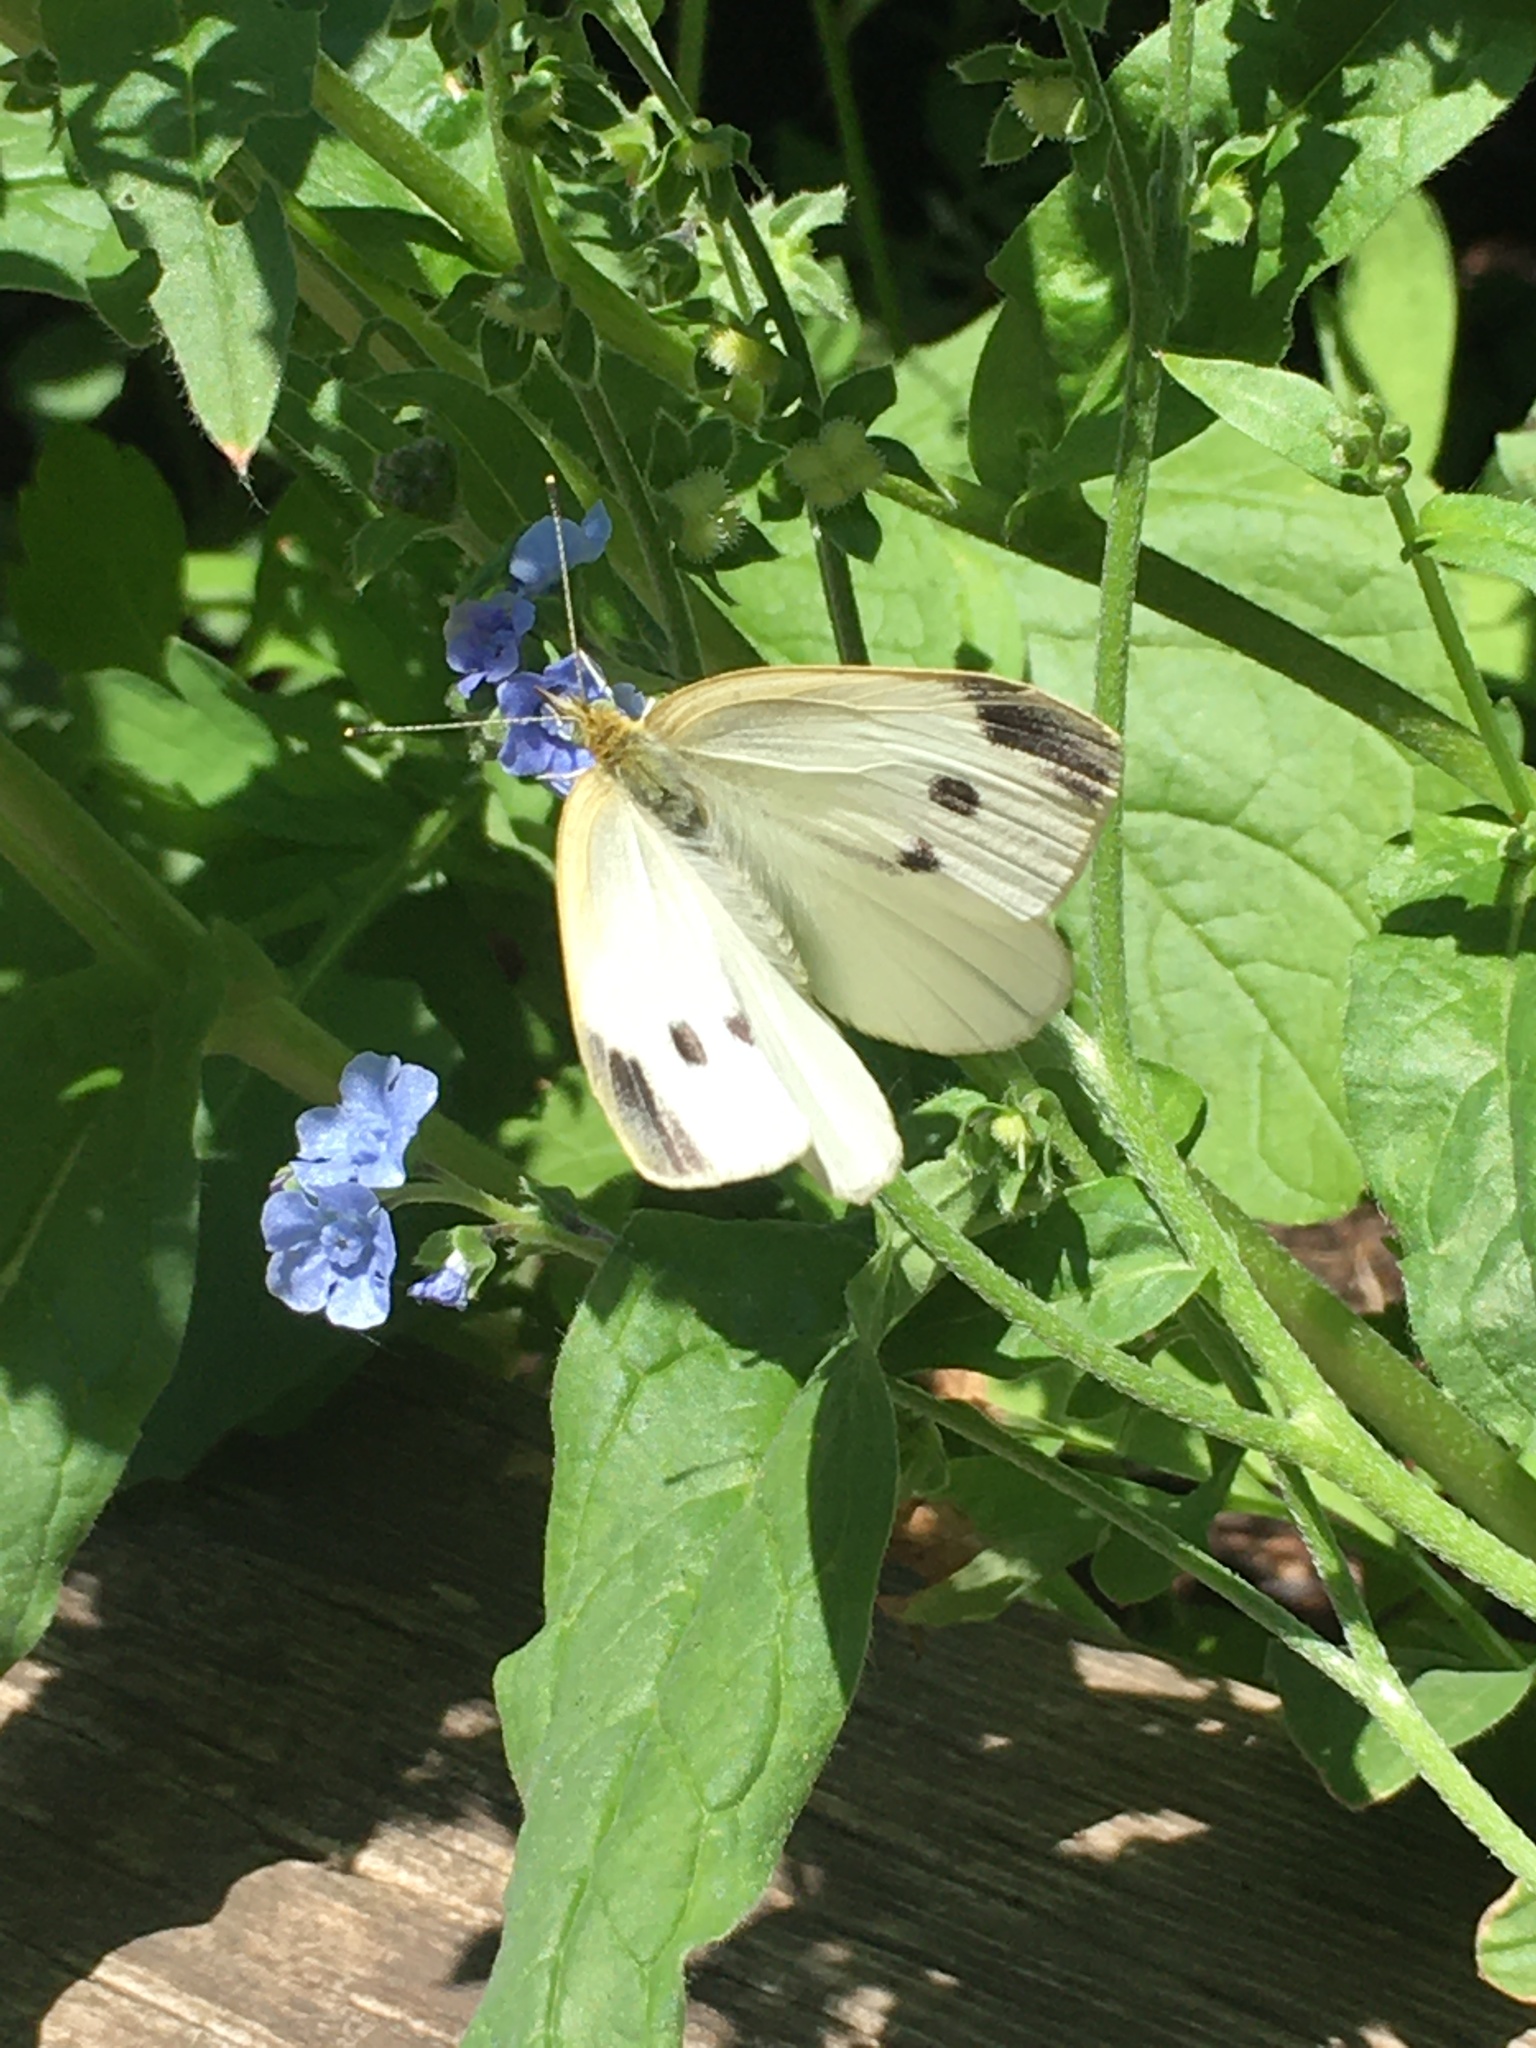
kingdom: Animalia
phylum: Arthropoda
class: Insecta
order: Lepidoptera
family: Pieridae
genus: Pieris
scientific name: Pieris rapae
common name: Small white
